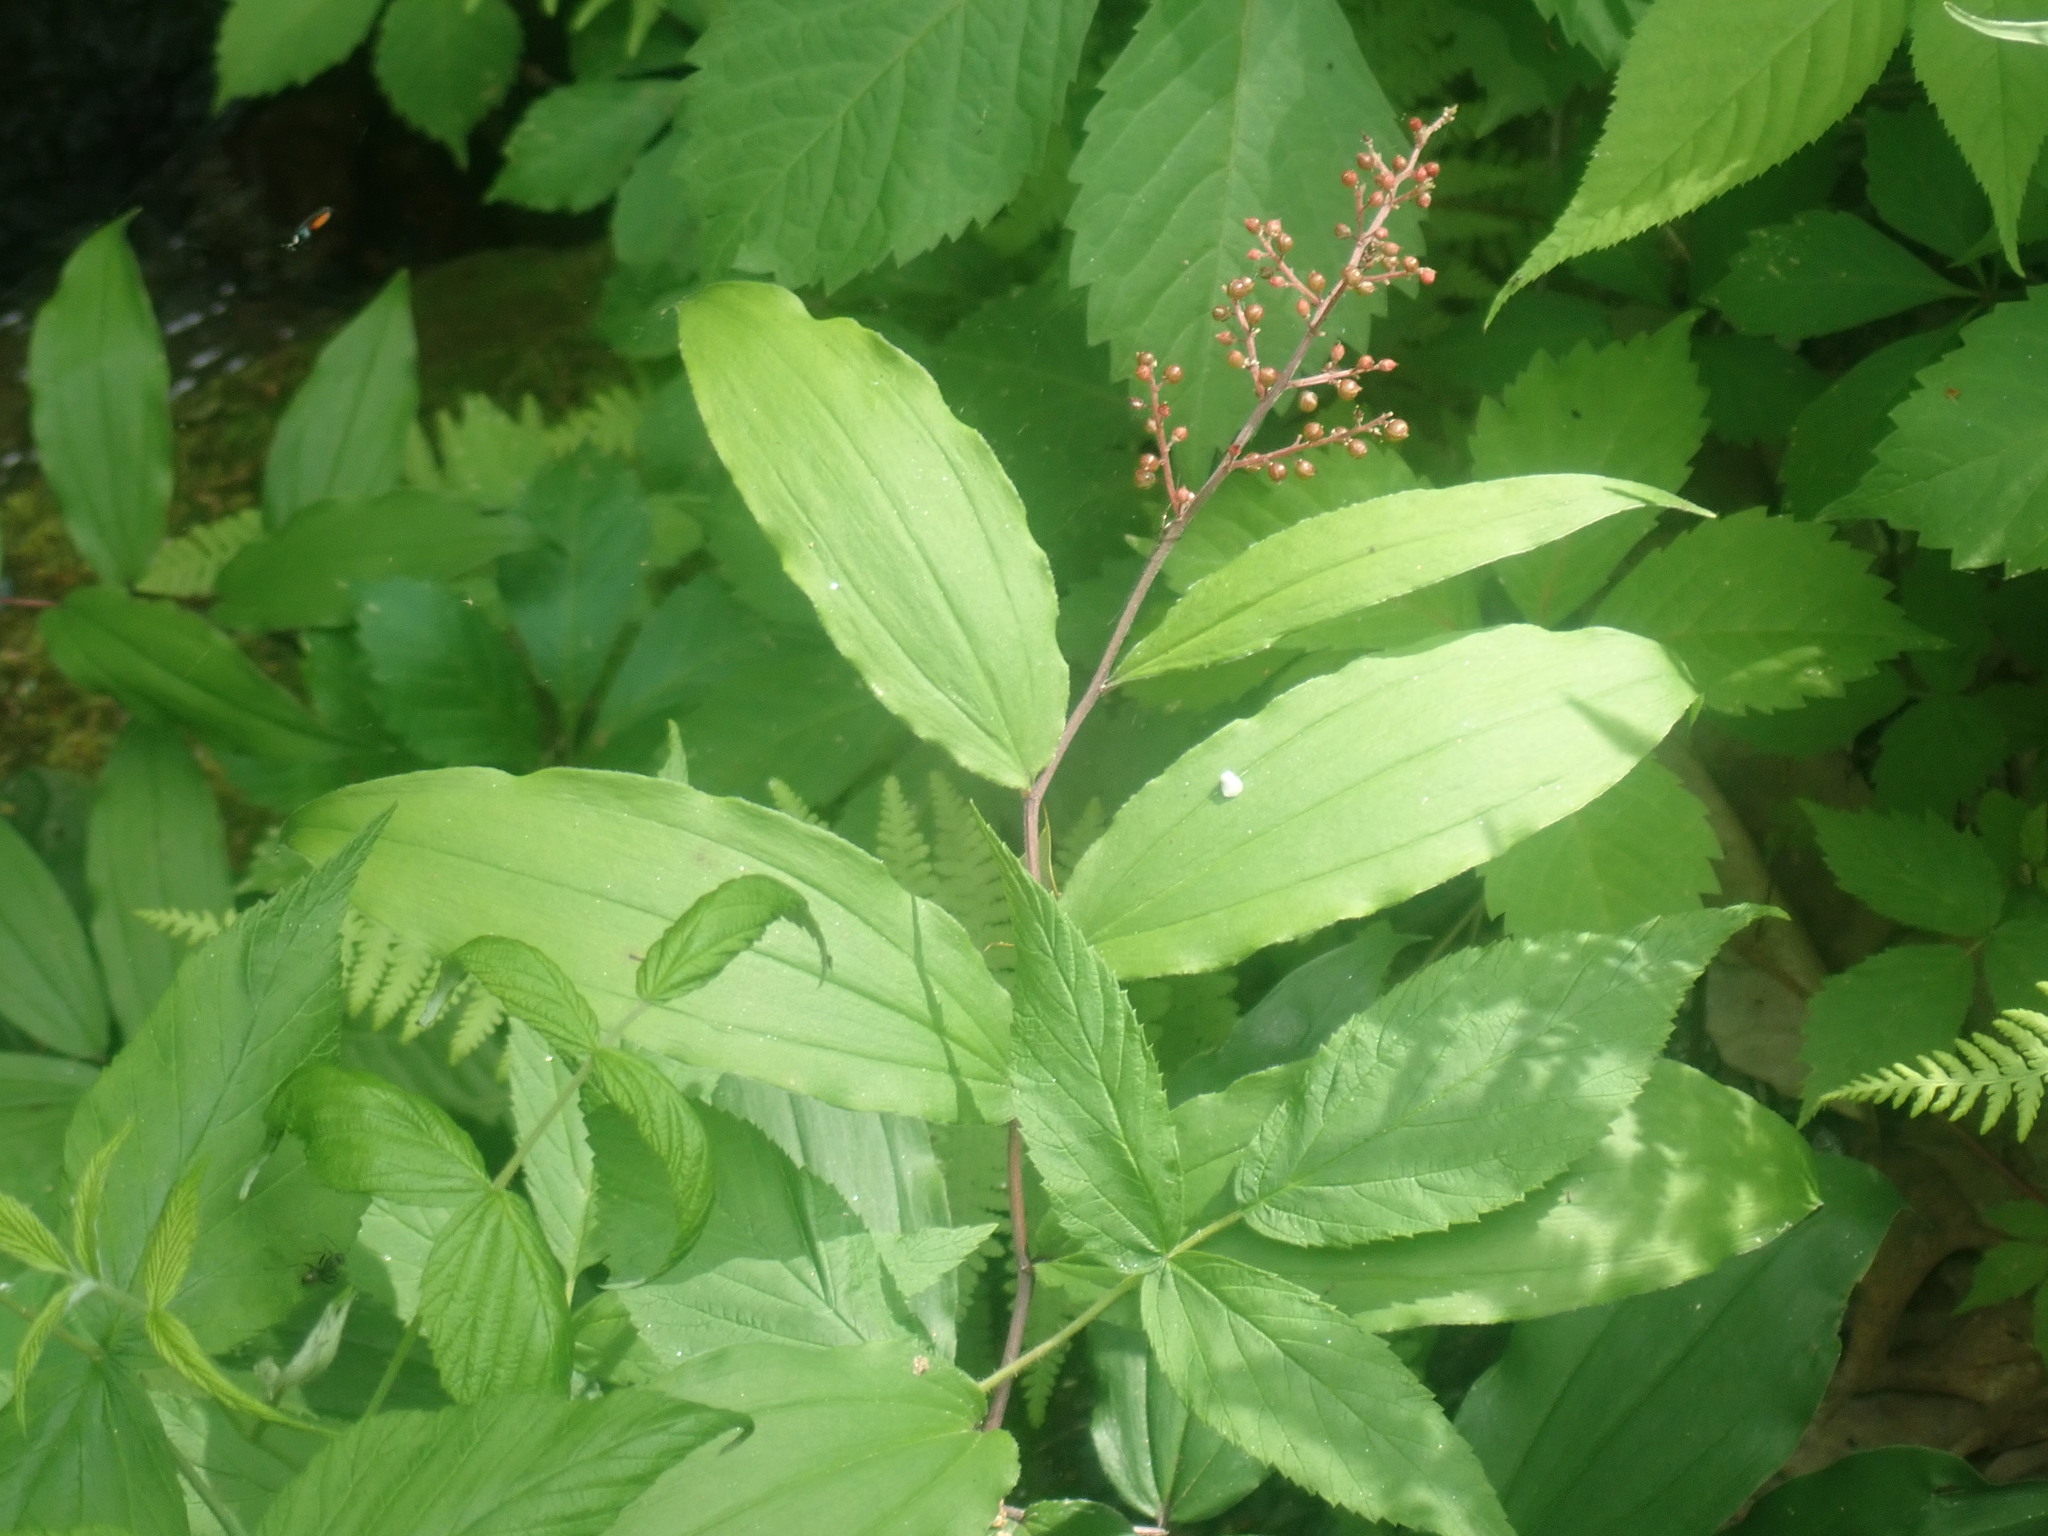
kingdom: Plantae
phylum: Tracheophyta
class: Liliopsida
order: Asparagales
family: Asparagaceae
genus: Maianthemum
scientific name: Maianthemum racemosum
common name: False spikenard
